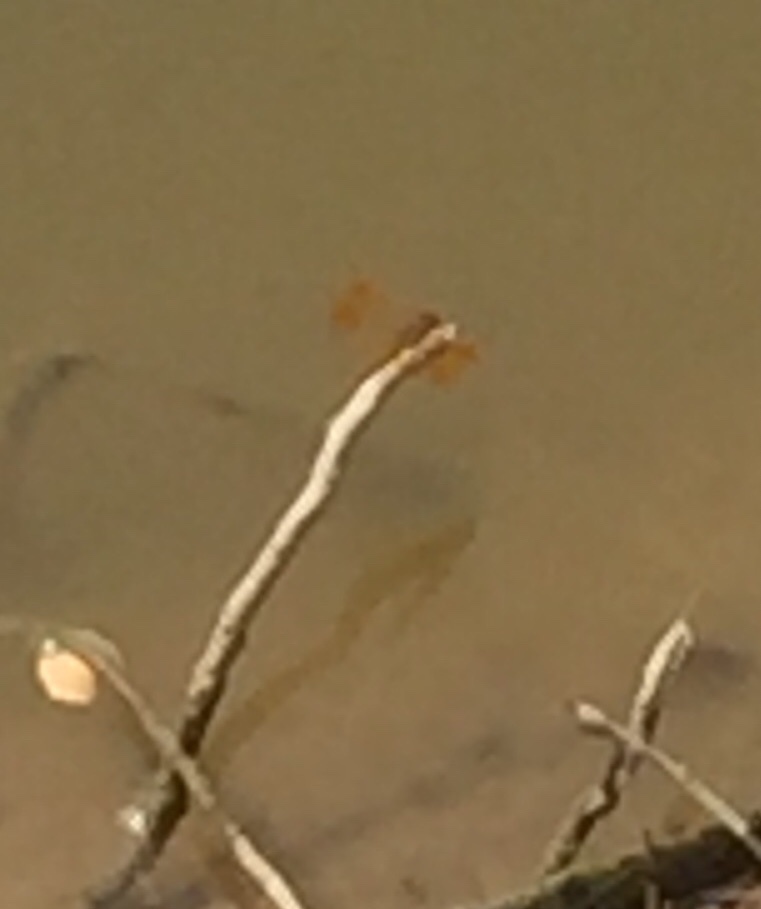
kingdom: Animalia
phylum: Arthropoda
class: Insecta
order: Odonata
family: Libellulidae
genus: Brachythemis
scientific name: Brachythemis contaminata
